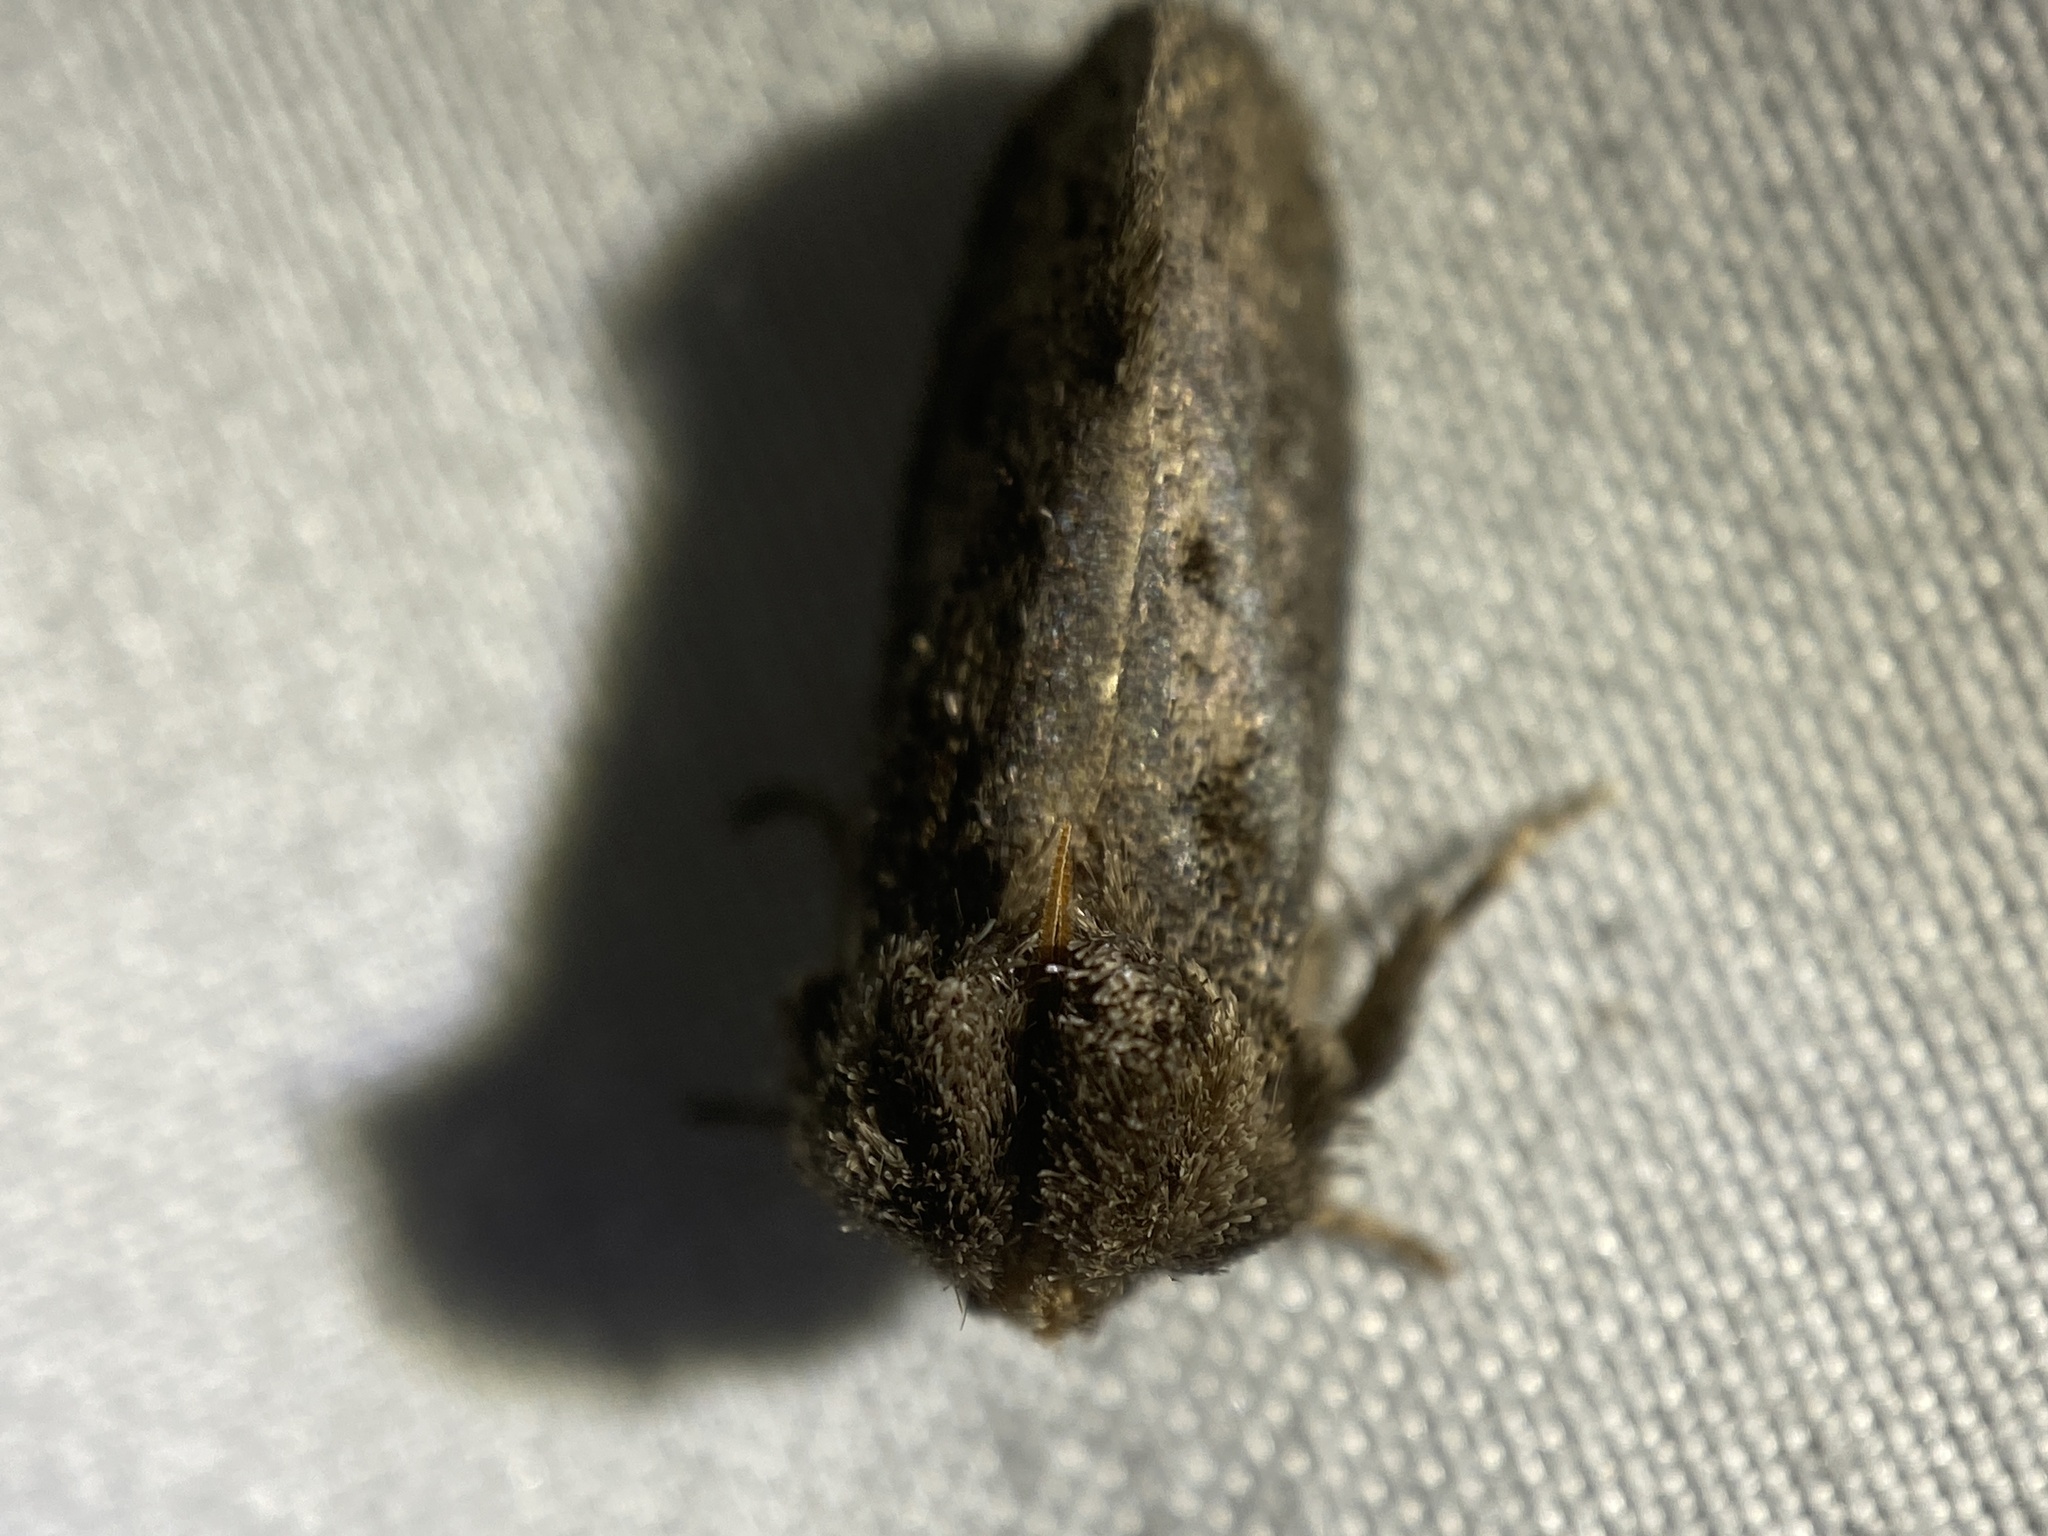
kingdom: Animalia
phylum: Arthropoda
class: Insecta
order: Lepidoptera
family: Tineidae
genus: Acrolophus
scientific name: Acrolophus arcanella
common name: Arcane grass tubeworm moth
